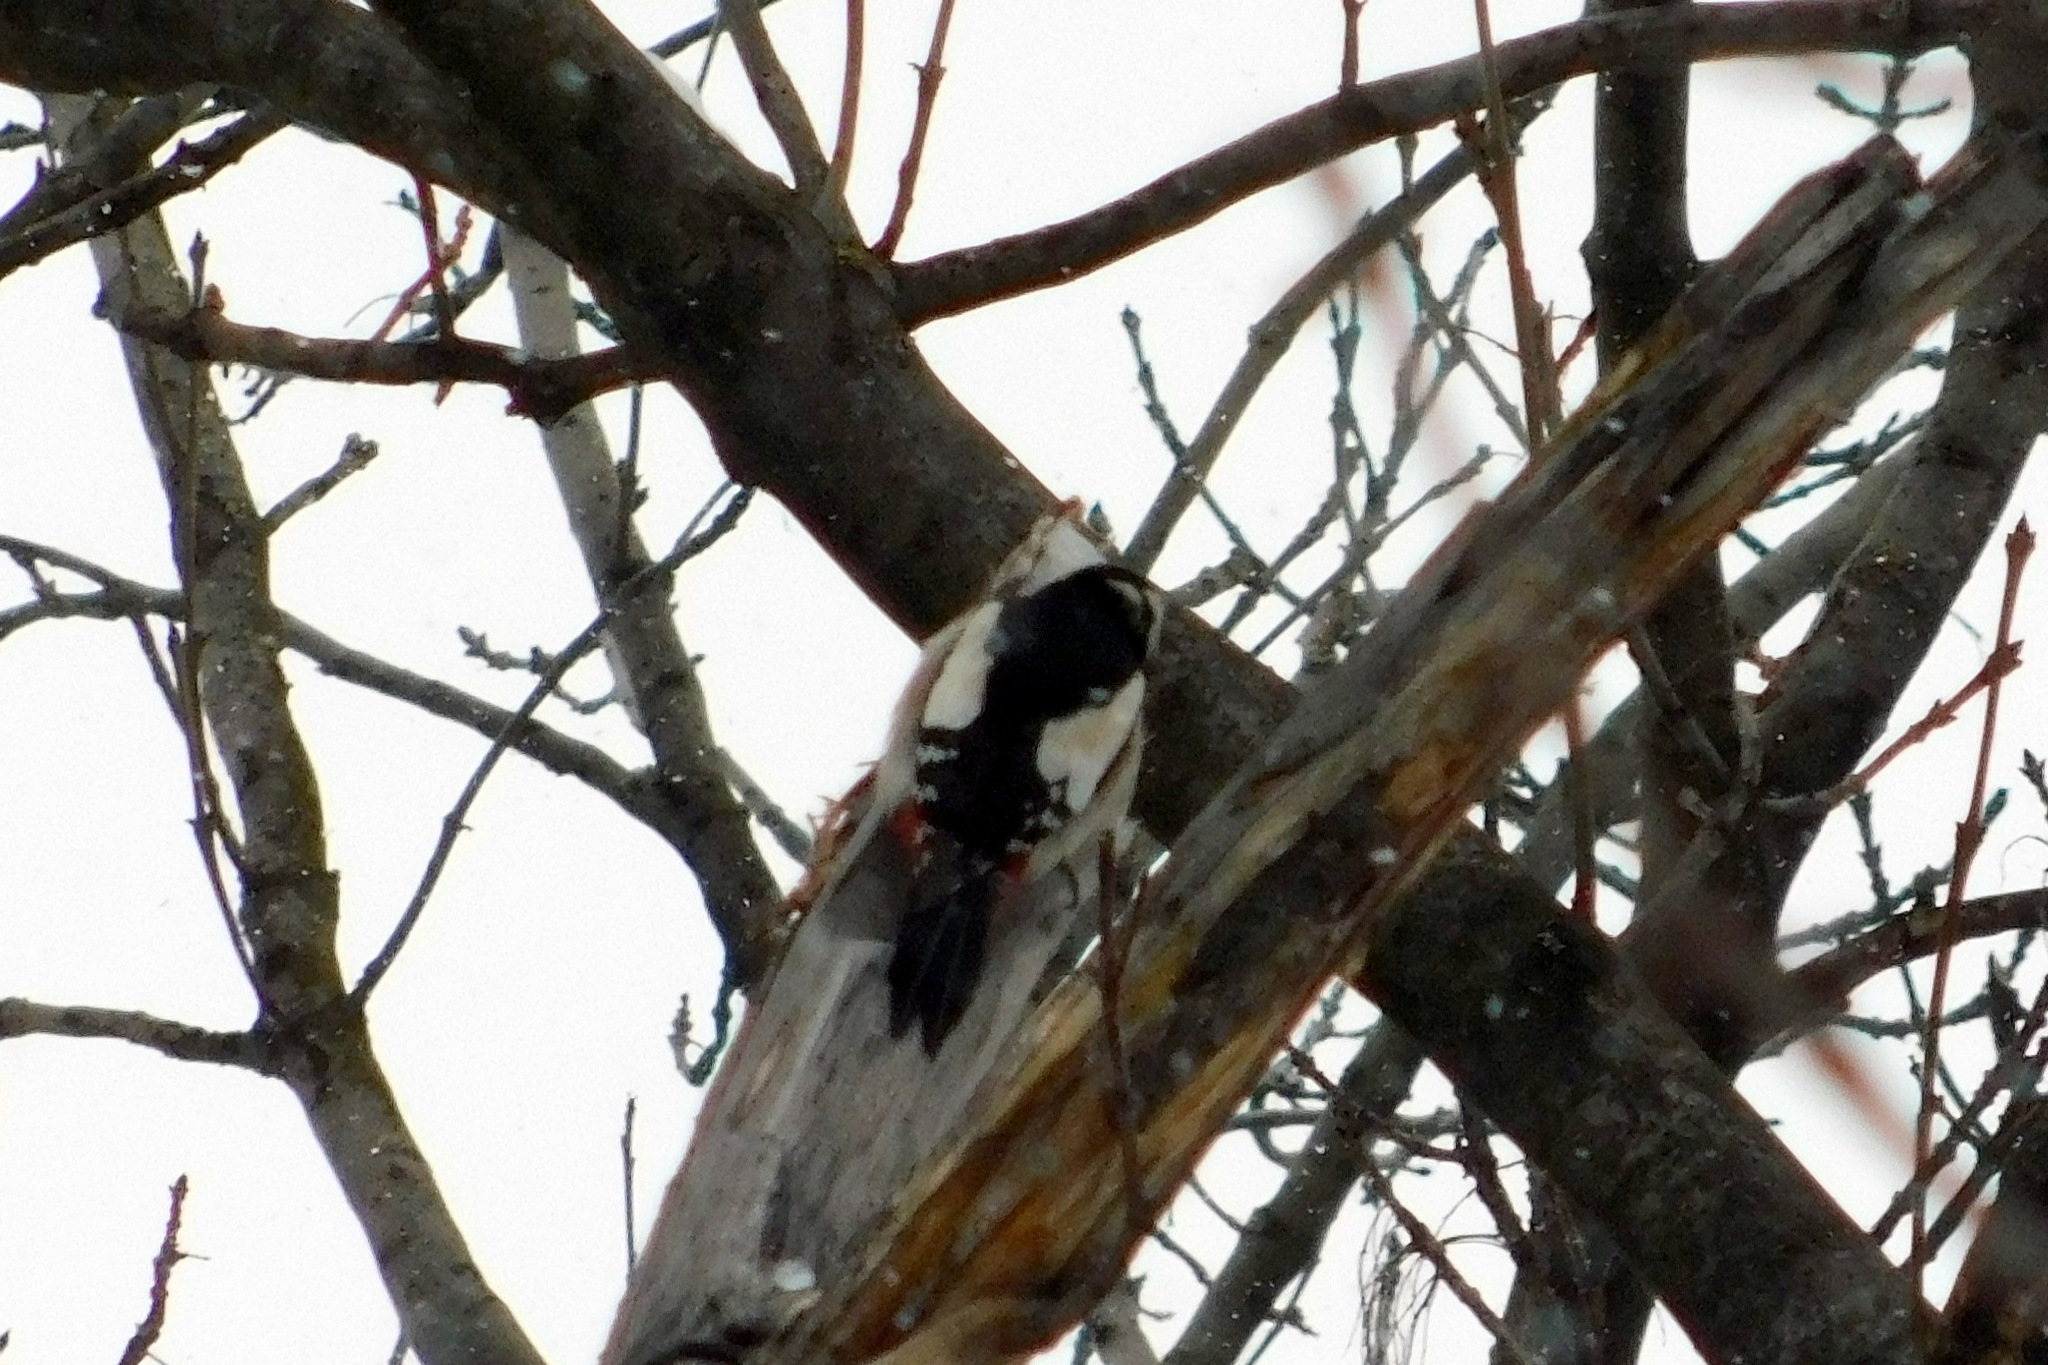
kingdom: Animalia
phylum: Chordata
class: Aves
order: Piciformes
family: Picidae
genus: Dendrocopos
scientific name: Dendrocopos major
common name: Great spotted woodpecker
